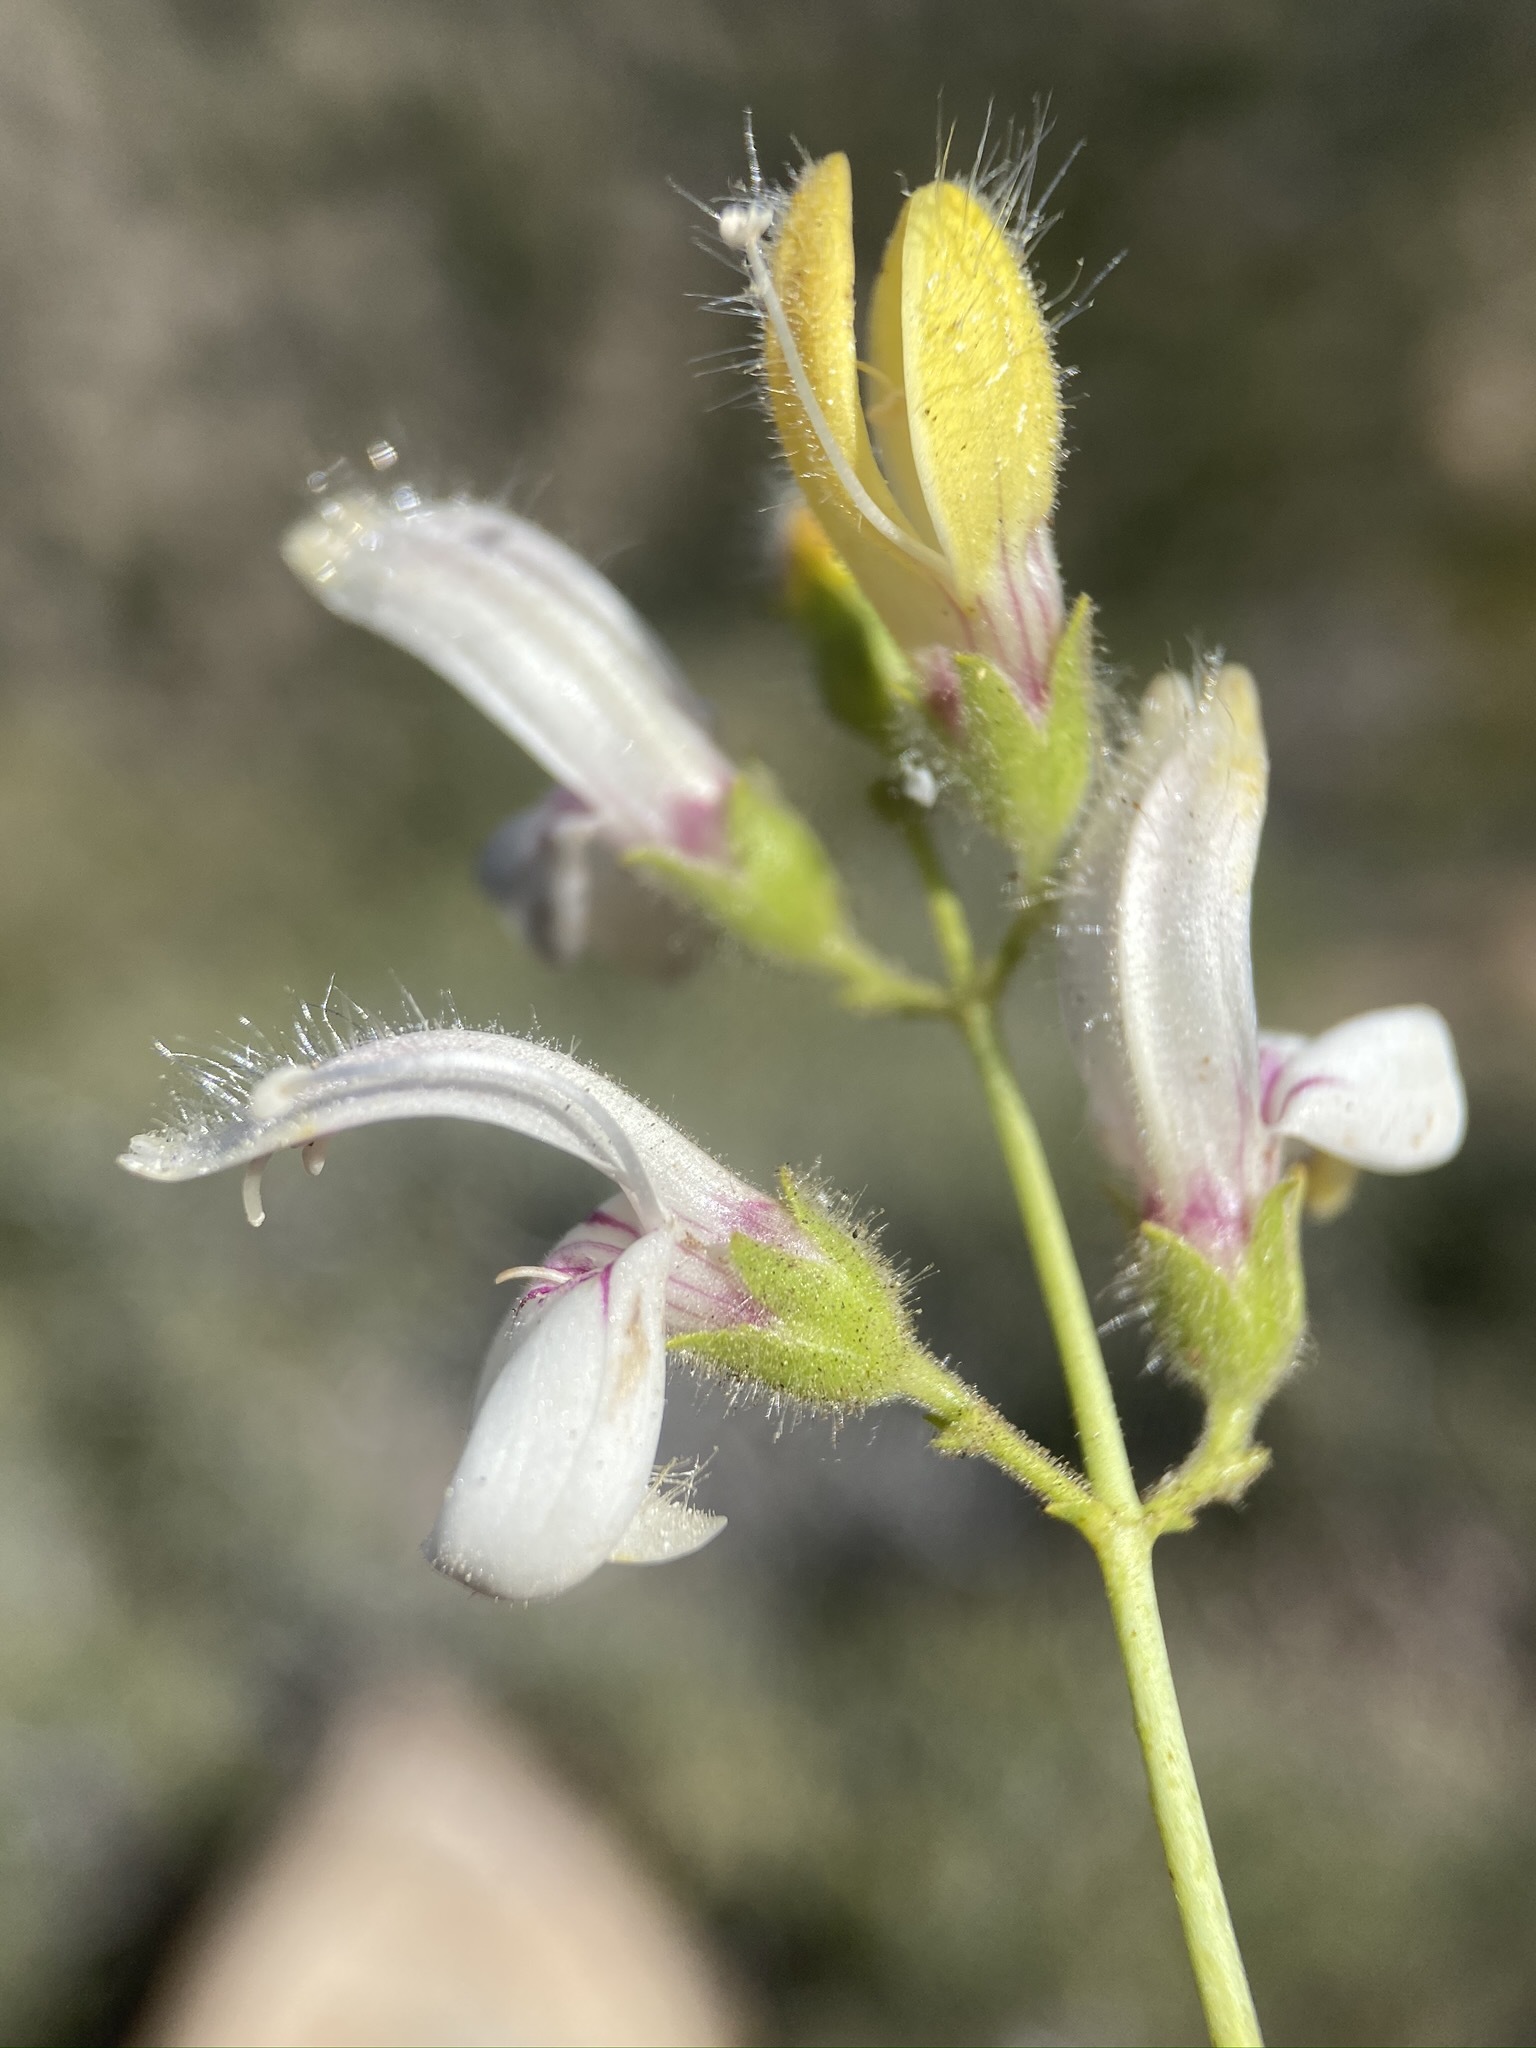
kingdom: Plantae
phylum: Tracheophyta
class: Magnoliopsida
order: Lamiales
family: Plantaginaceae
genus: Keckiella
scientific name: Keckiella breviflora
